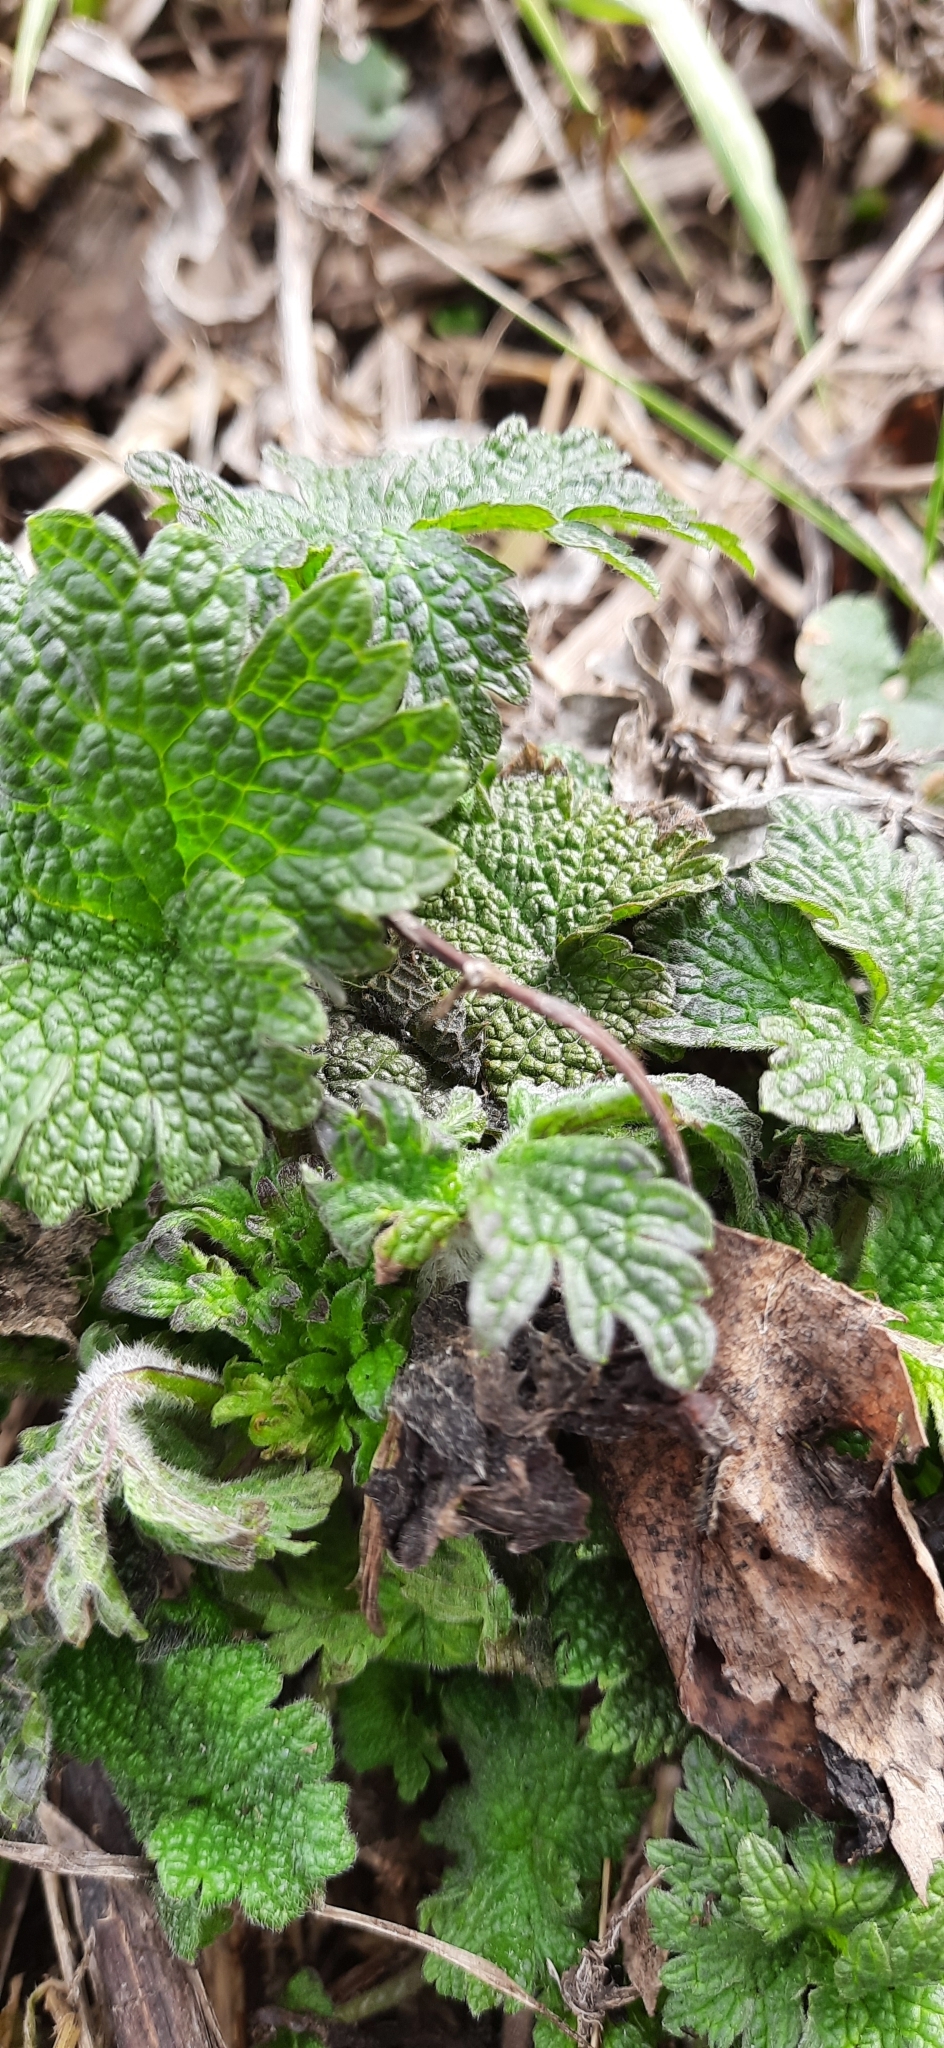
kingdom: Plantae
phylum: Tracheophyta
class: Magnoliopsida
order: Lamiales
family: Lamiaceae
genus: Leonurus
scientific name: Leonurus quinquelobatus
